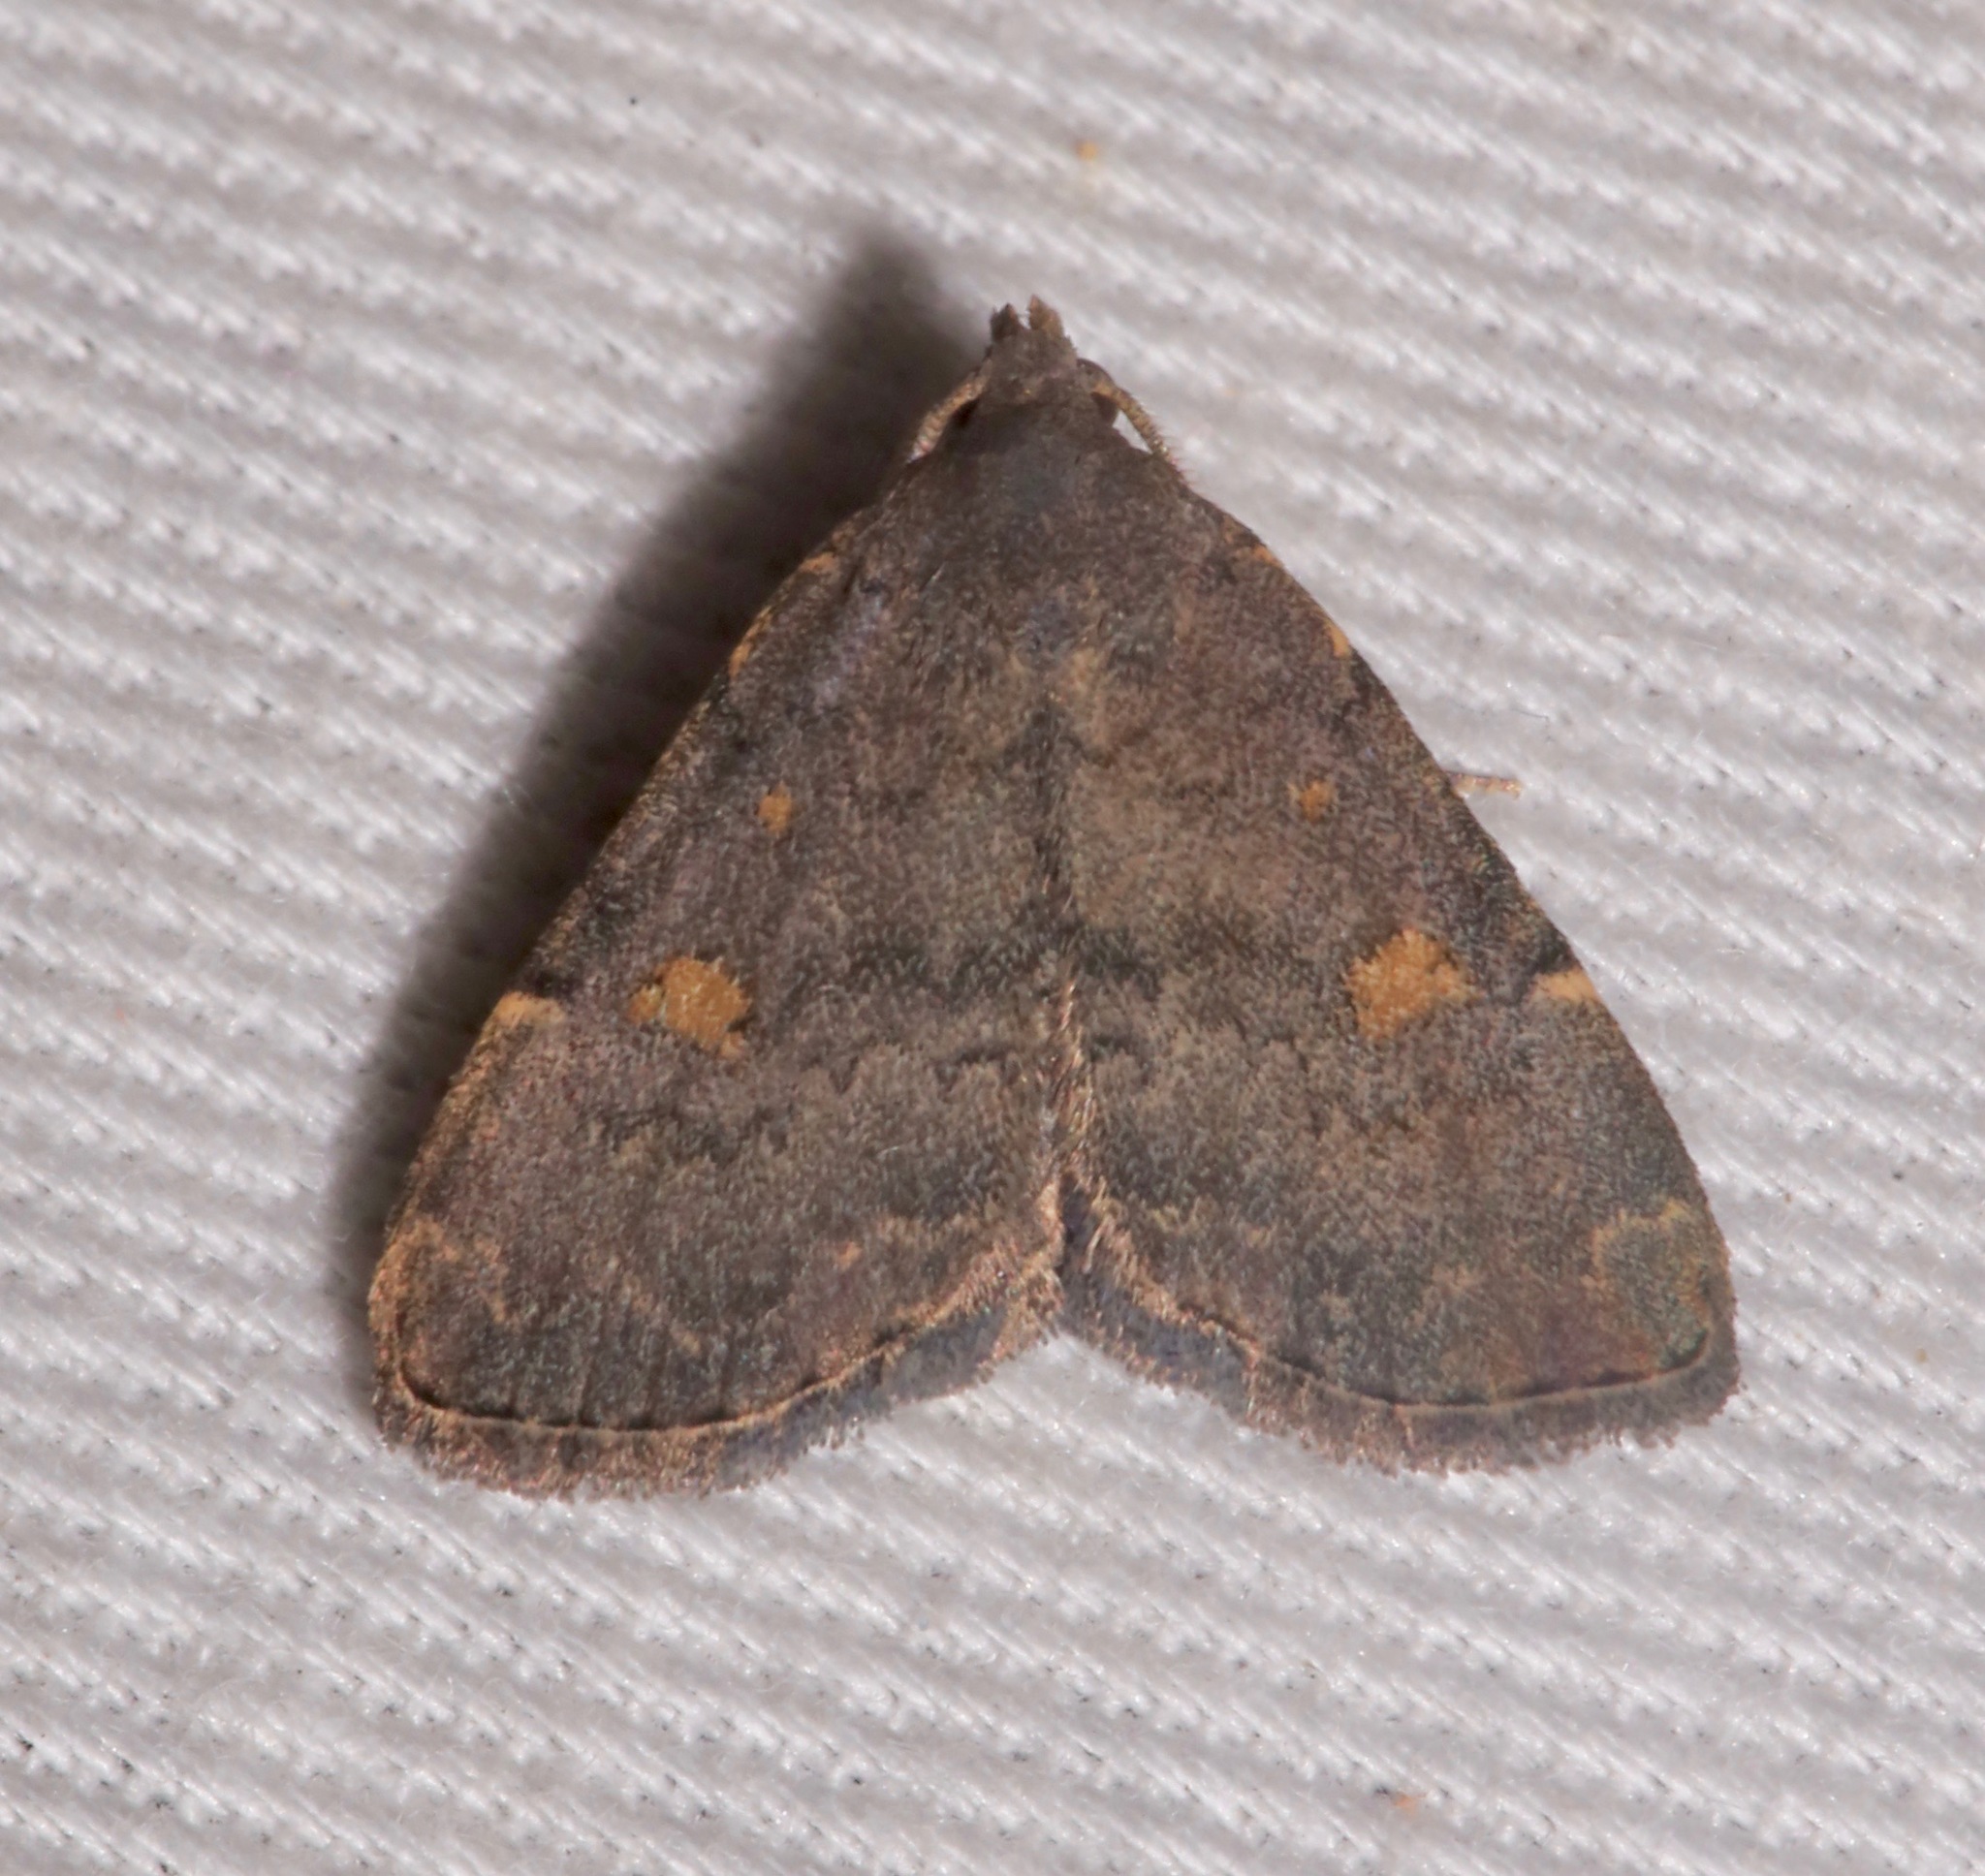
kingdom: Animalia
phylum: Arthropoda
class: Insecta
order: Lepidoptera
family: Erebidae
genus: Idia
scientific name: Idia aemula
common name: Common idia moth
